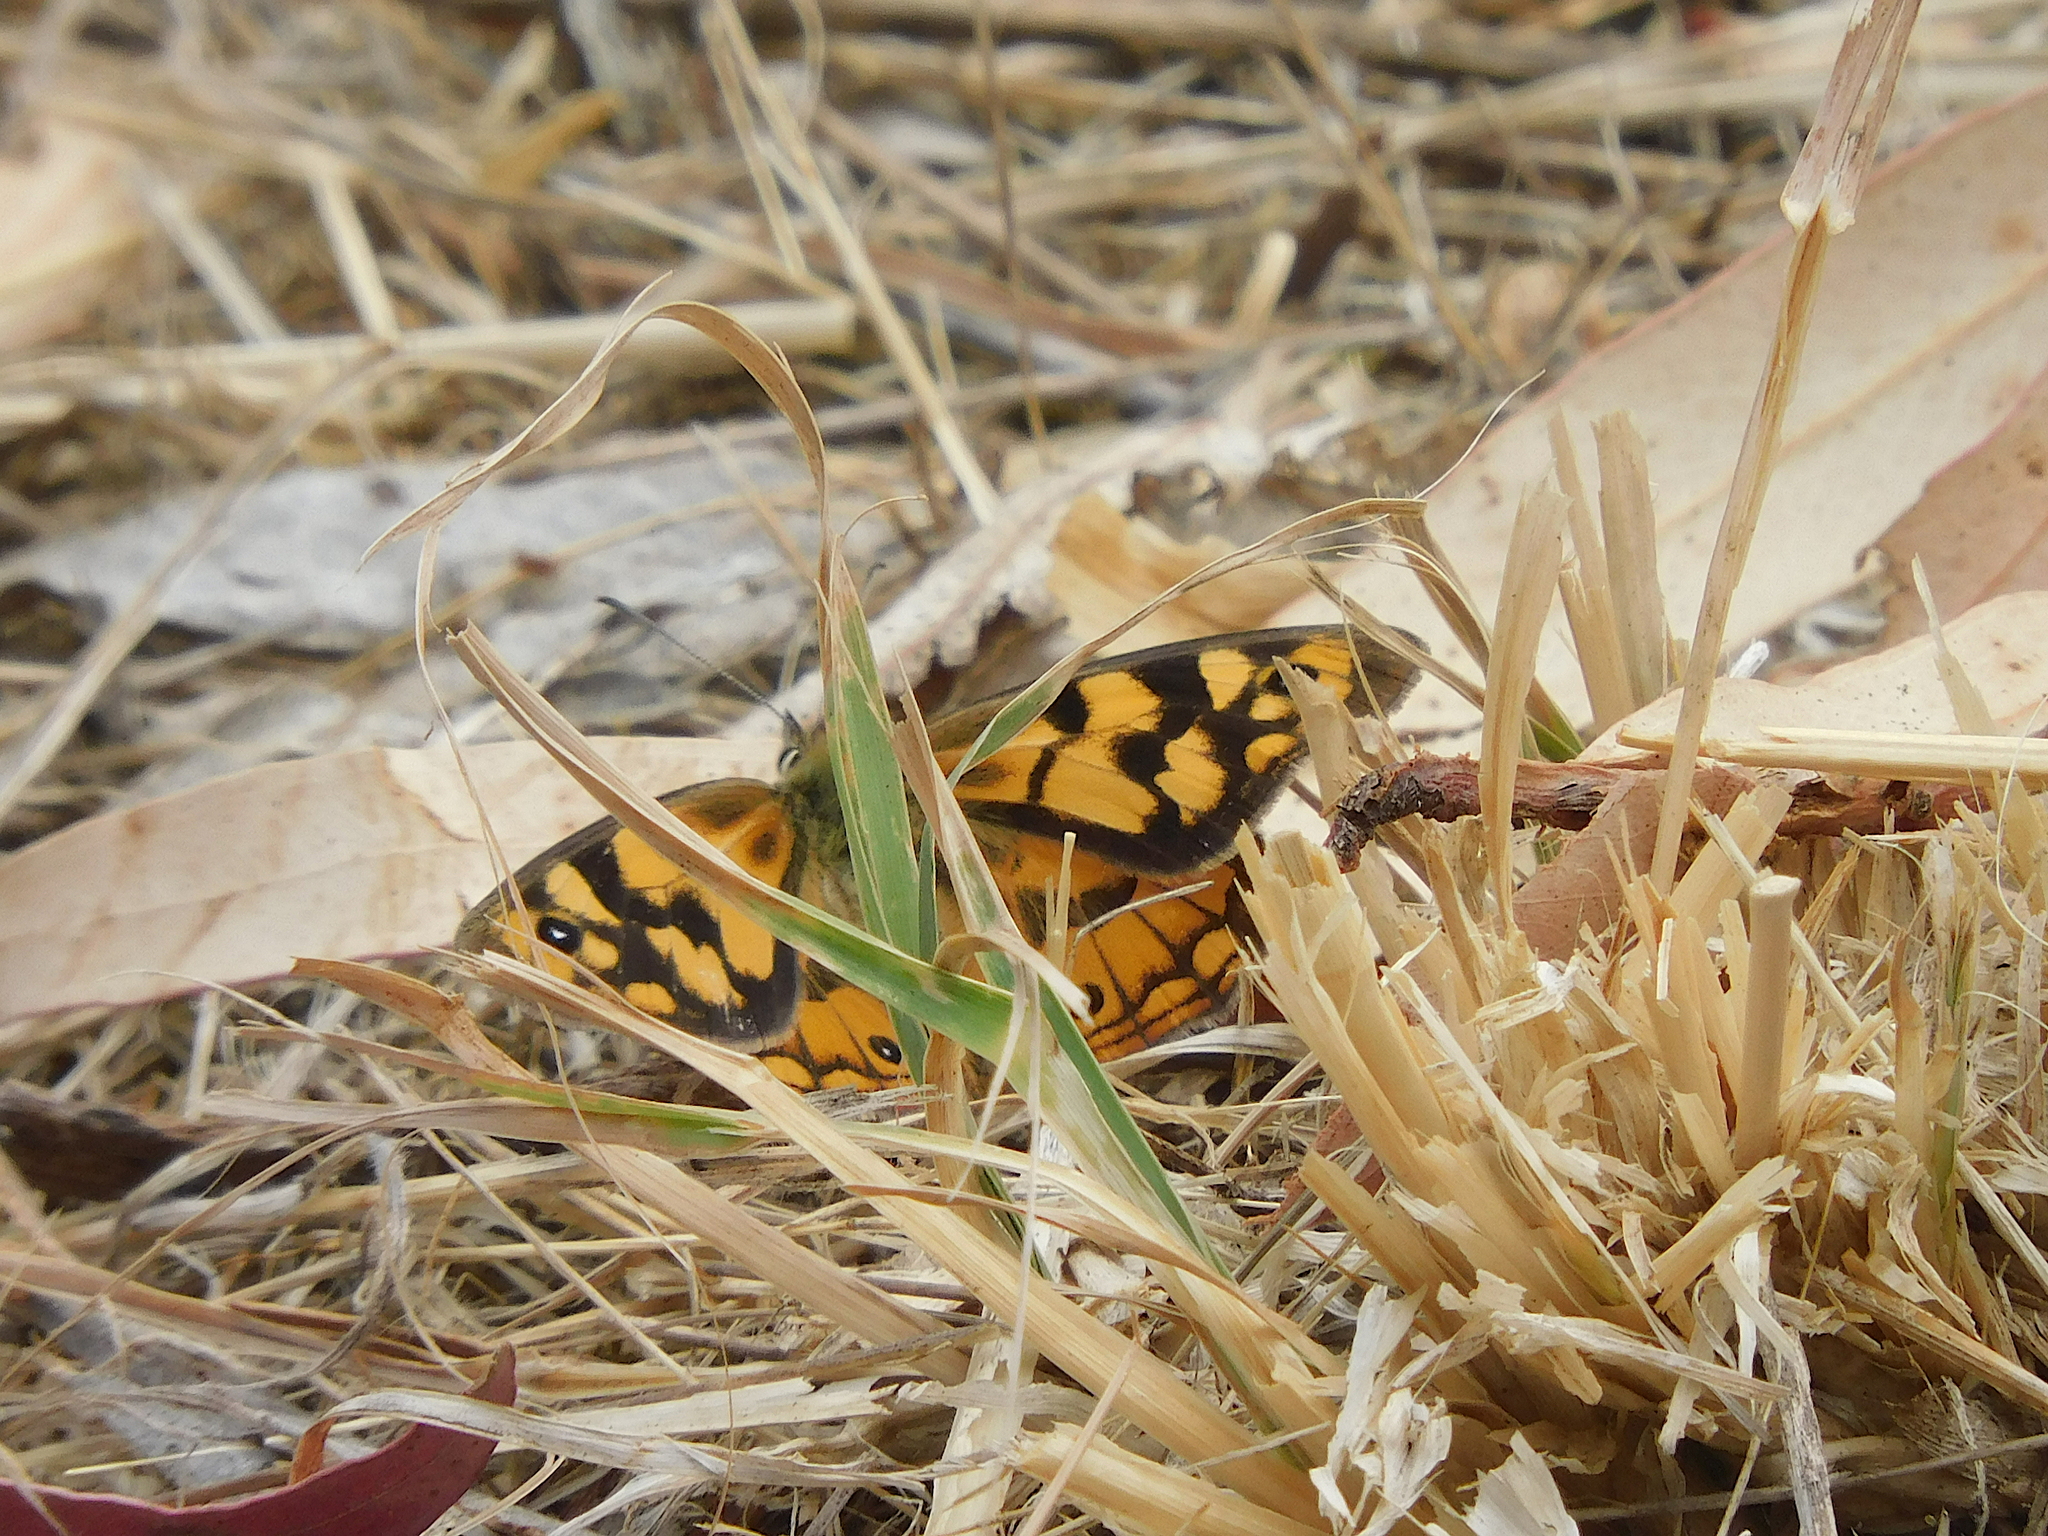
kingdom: Animalia
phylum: Arthropoda
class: Insecta
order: Lepidoptera
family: Nymphalidae
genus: Heteronympha
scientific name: Heteronympha penelope
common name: Shouldered brown
